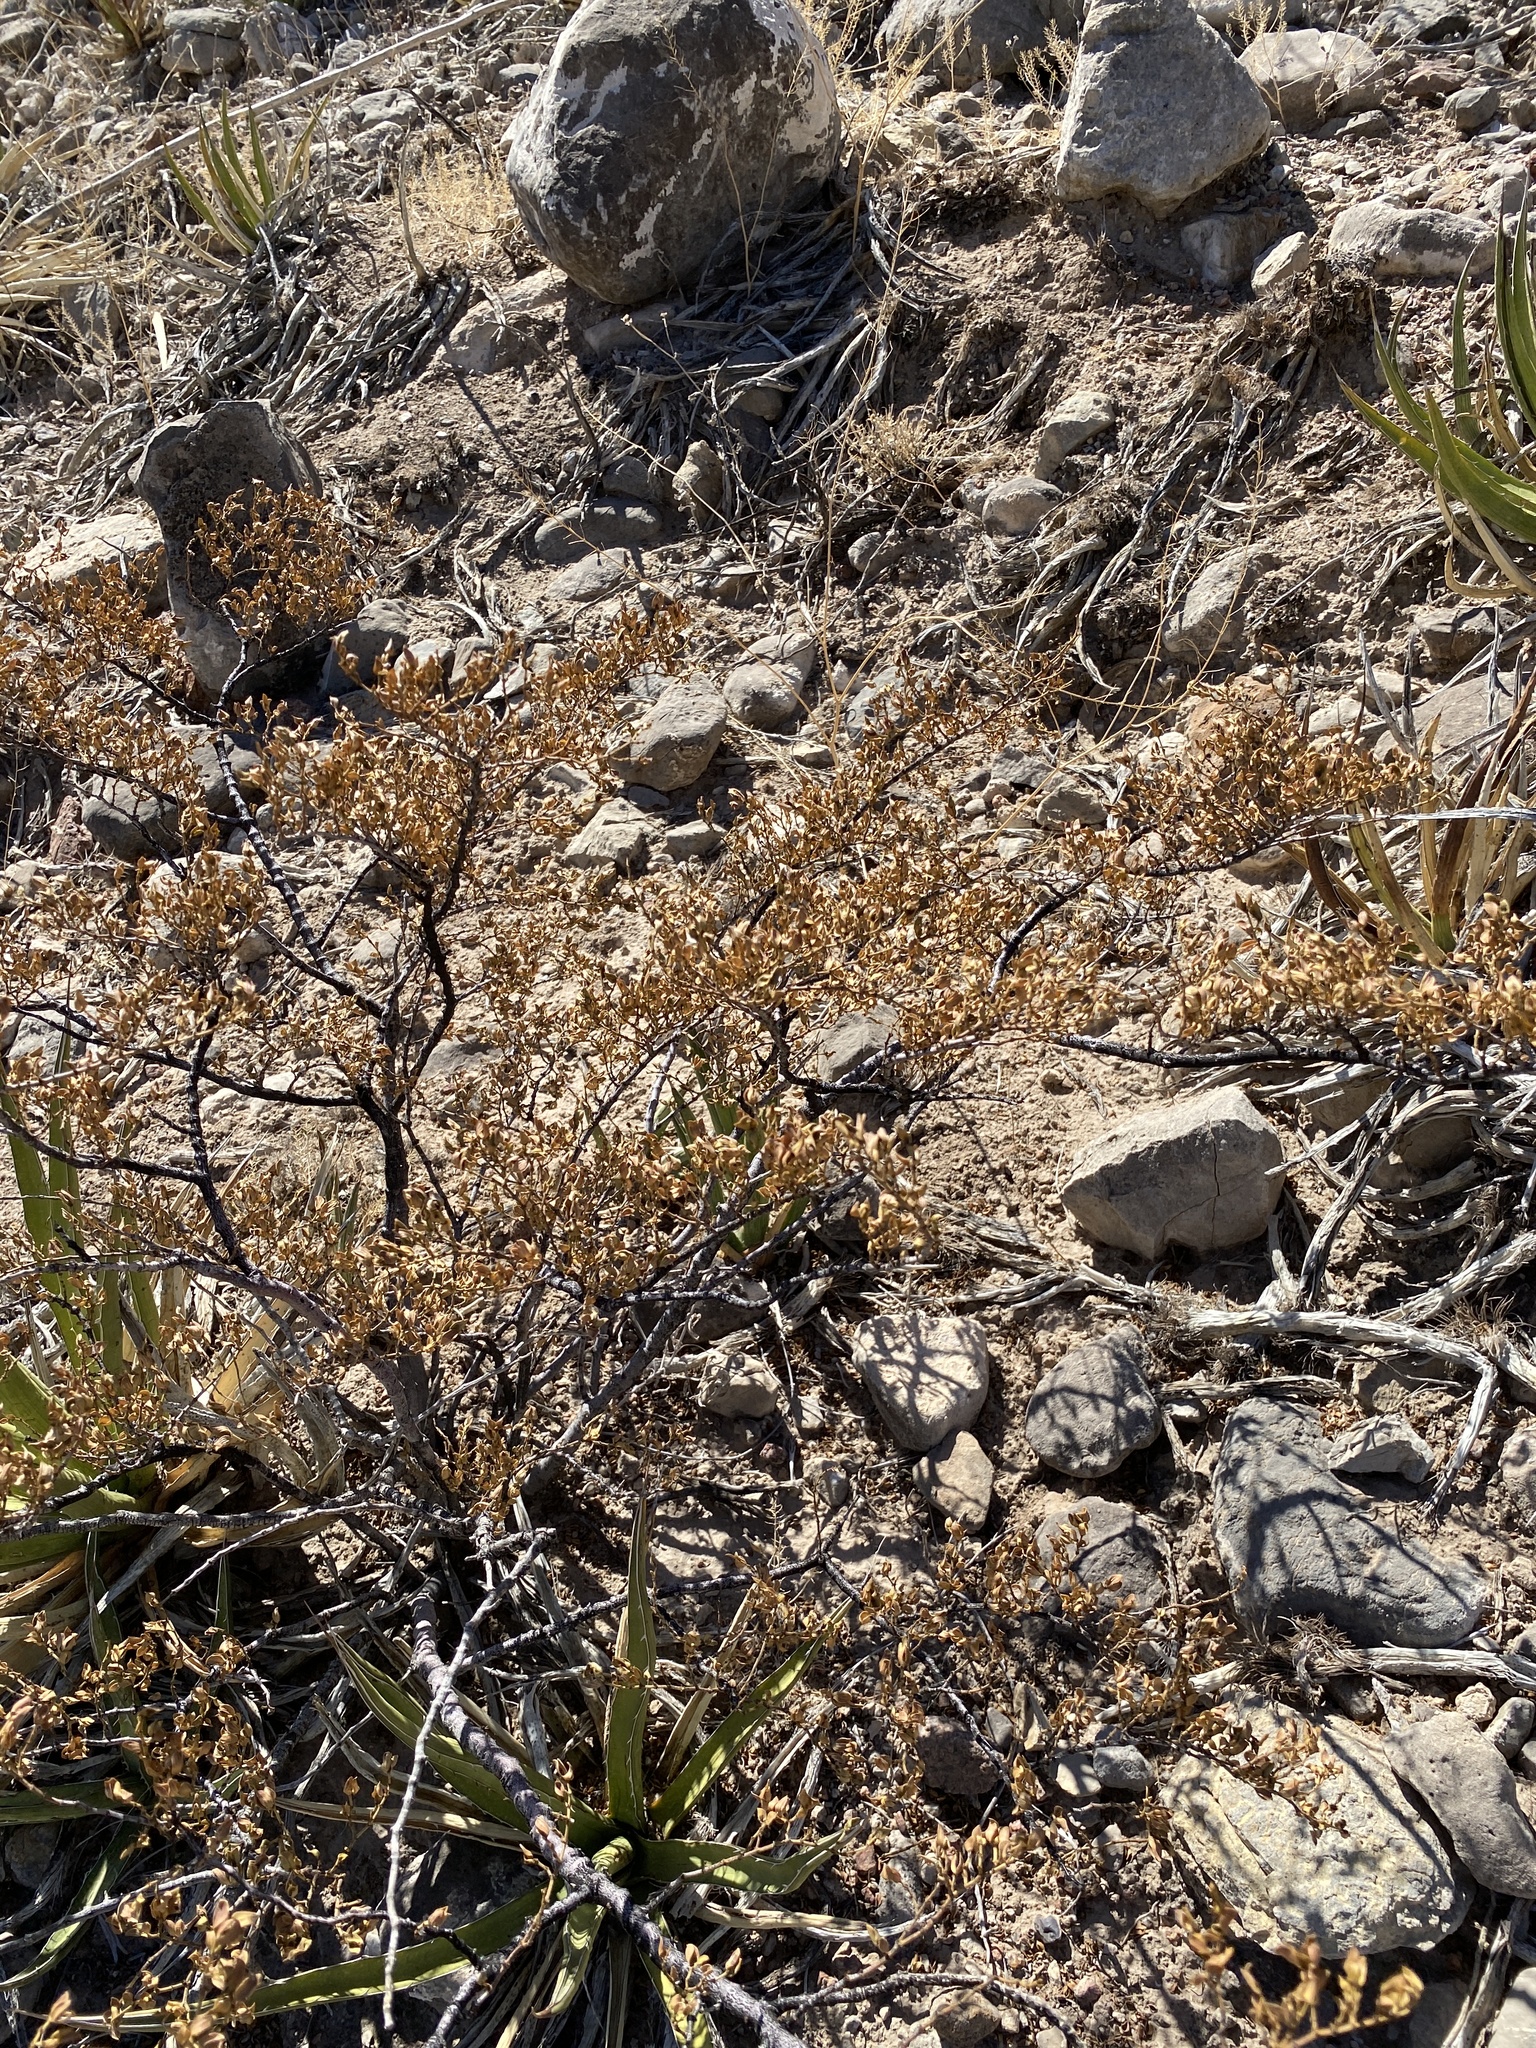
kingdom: Plantae
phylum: Tracheophyta
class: Magnoliopsida
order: Zygophyllales
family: Zygophyllaceae
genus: Larrea
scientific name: Larrea tridentata
